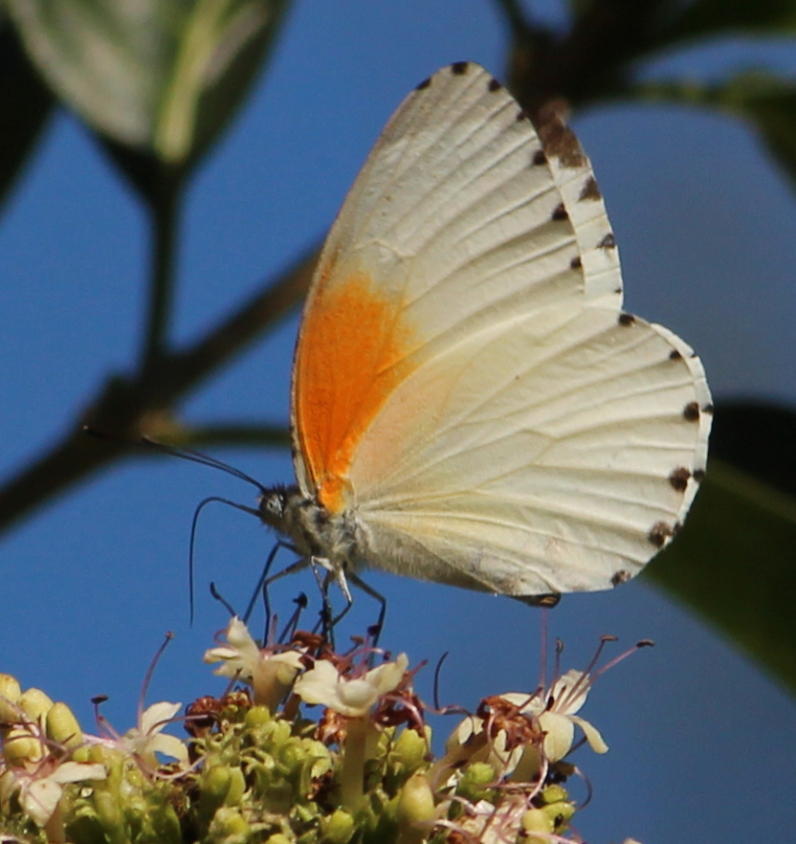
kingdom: Animalia
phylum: Arthropoda
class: Insecta
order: Lepidoptera
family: Pieridae
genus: Mylothris
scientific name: Mylothris rueppellii
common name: Twin dotted border
